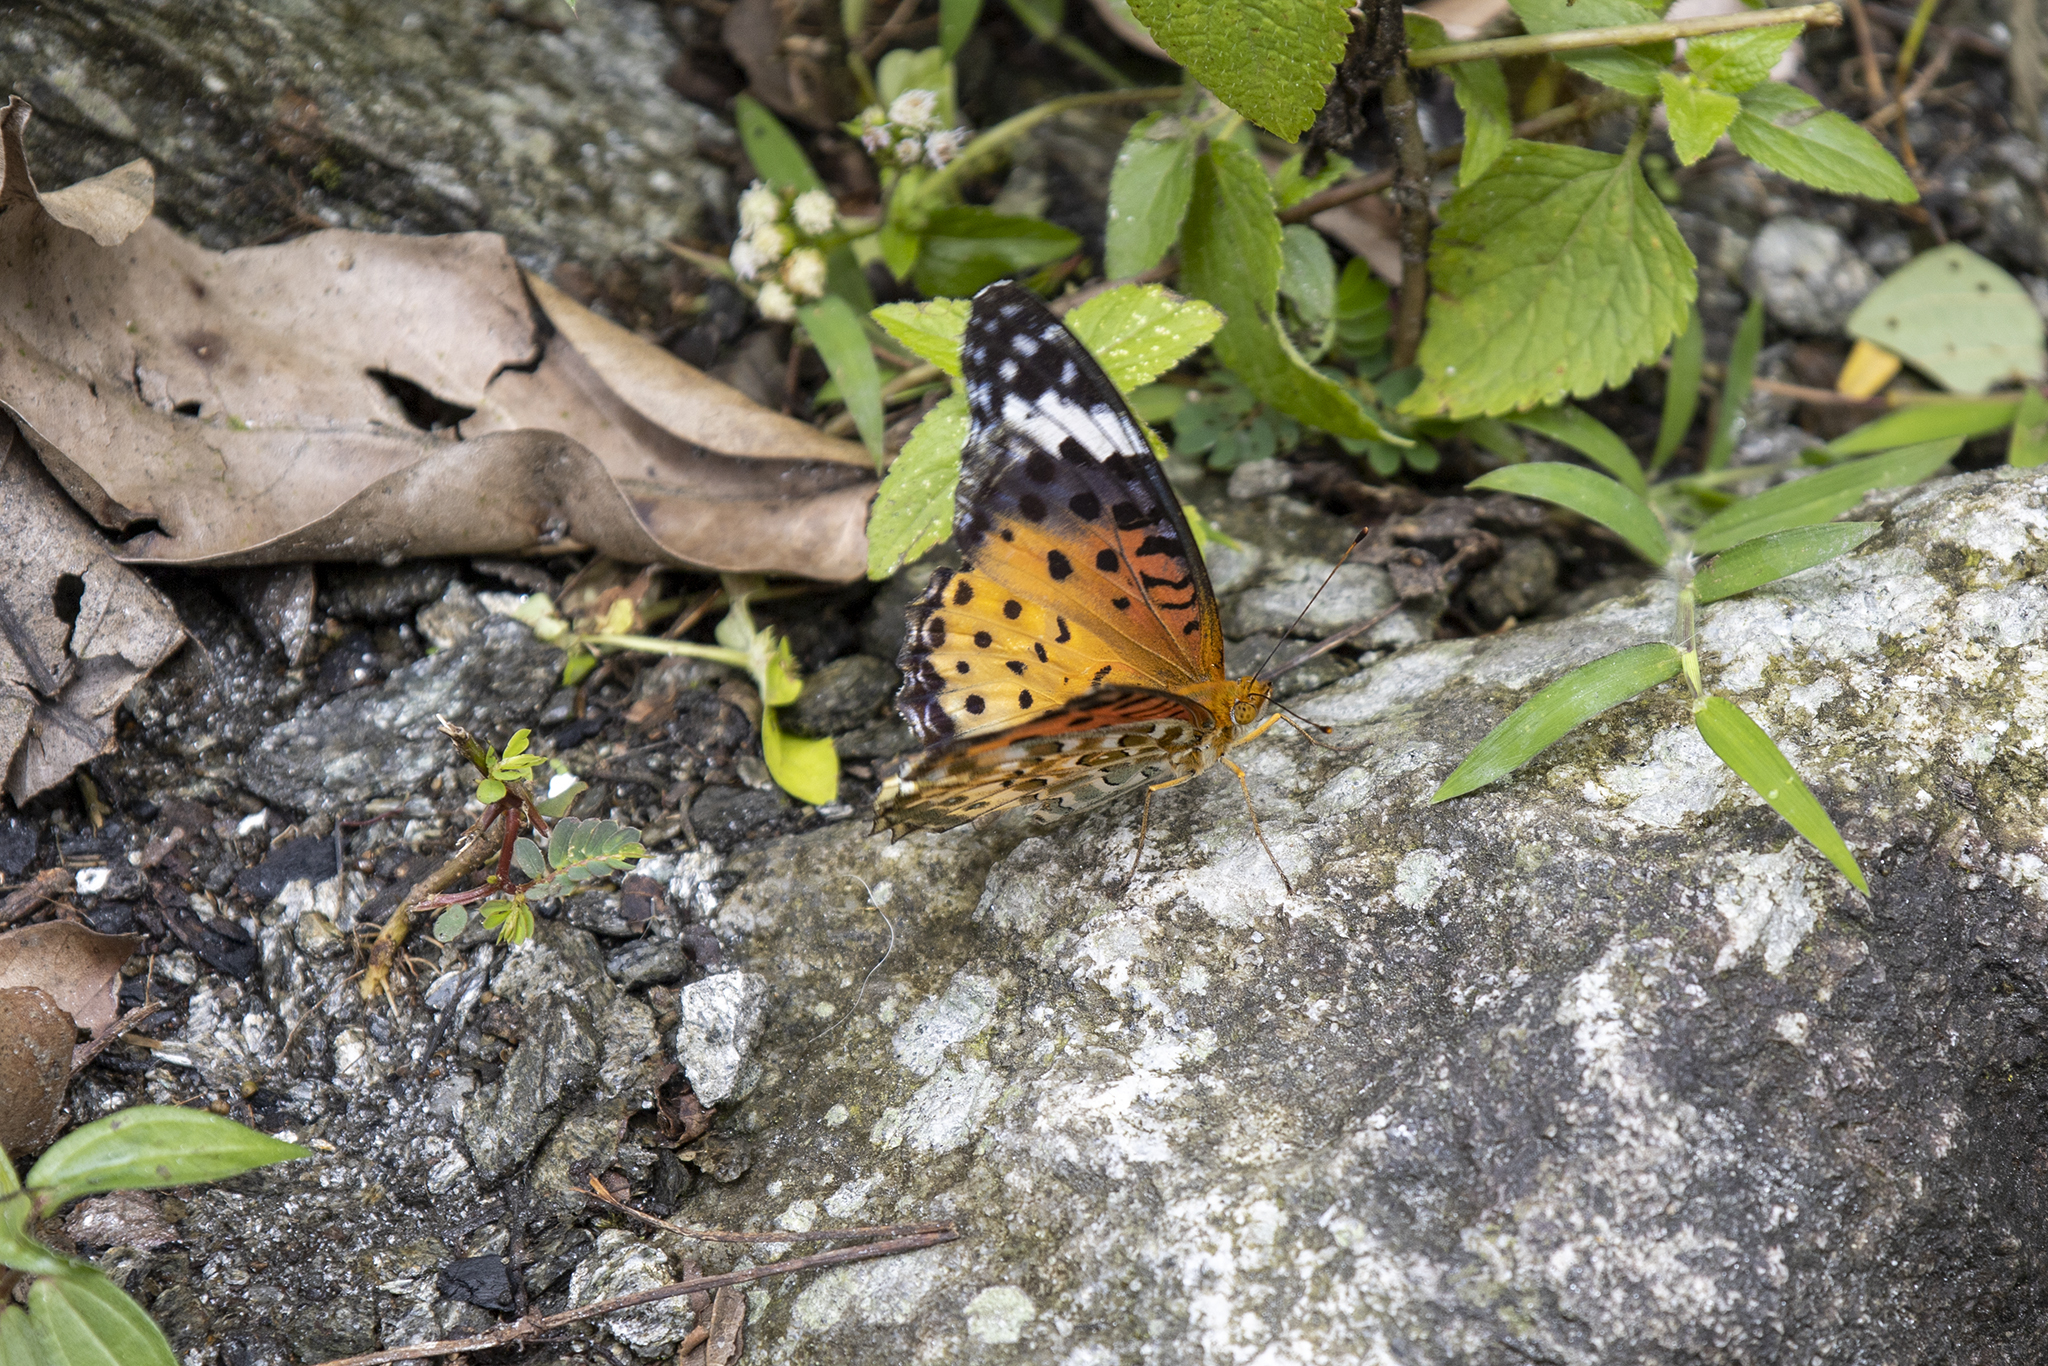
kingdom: Animalia
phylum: Arthropoda
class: Insecta
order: Lepidoptera
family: Nymphalidae
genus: Argynnis
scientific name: Argynnis hyperbius
